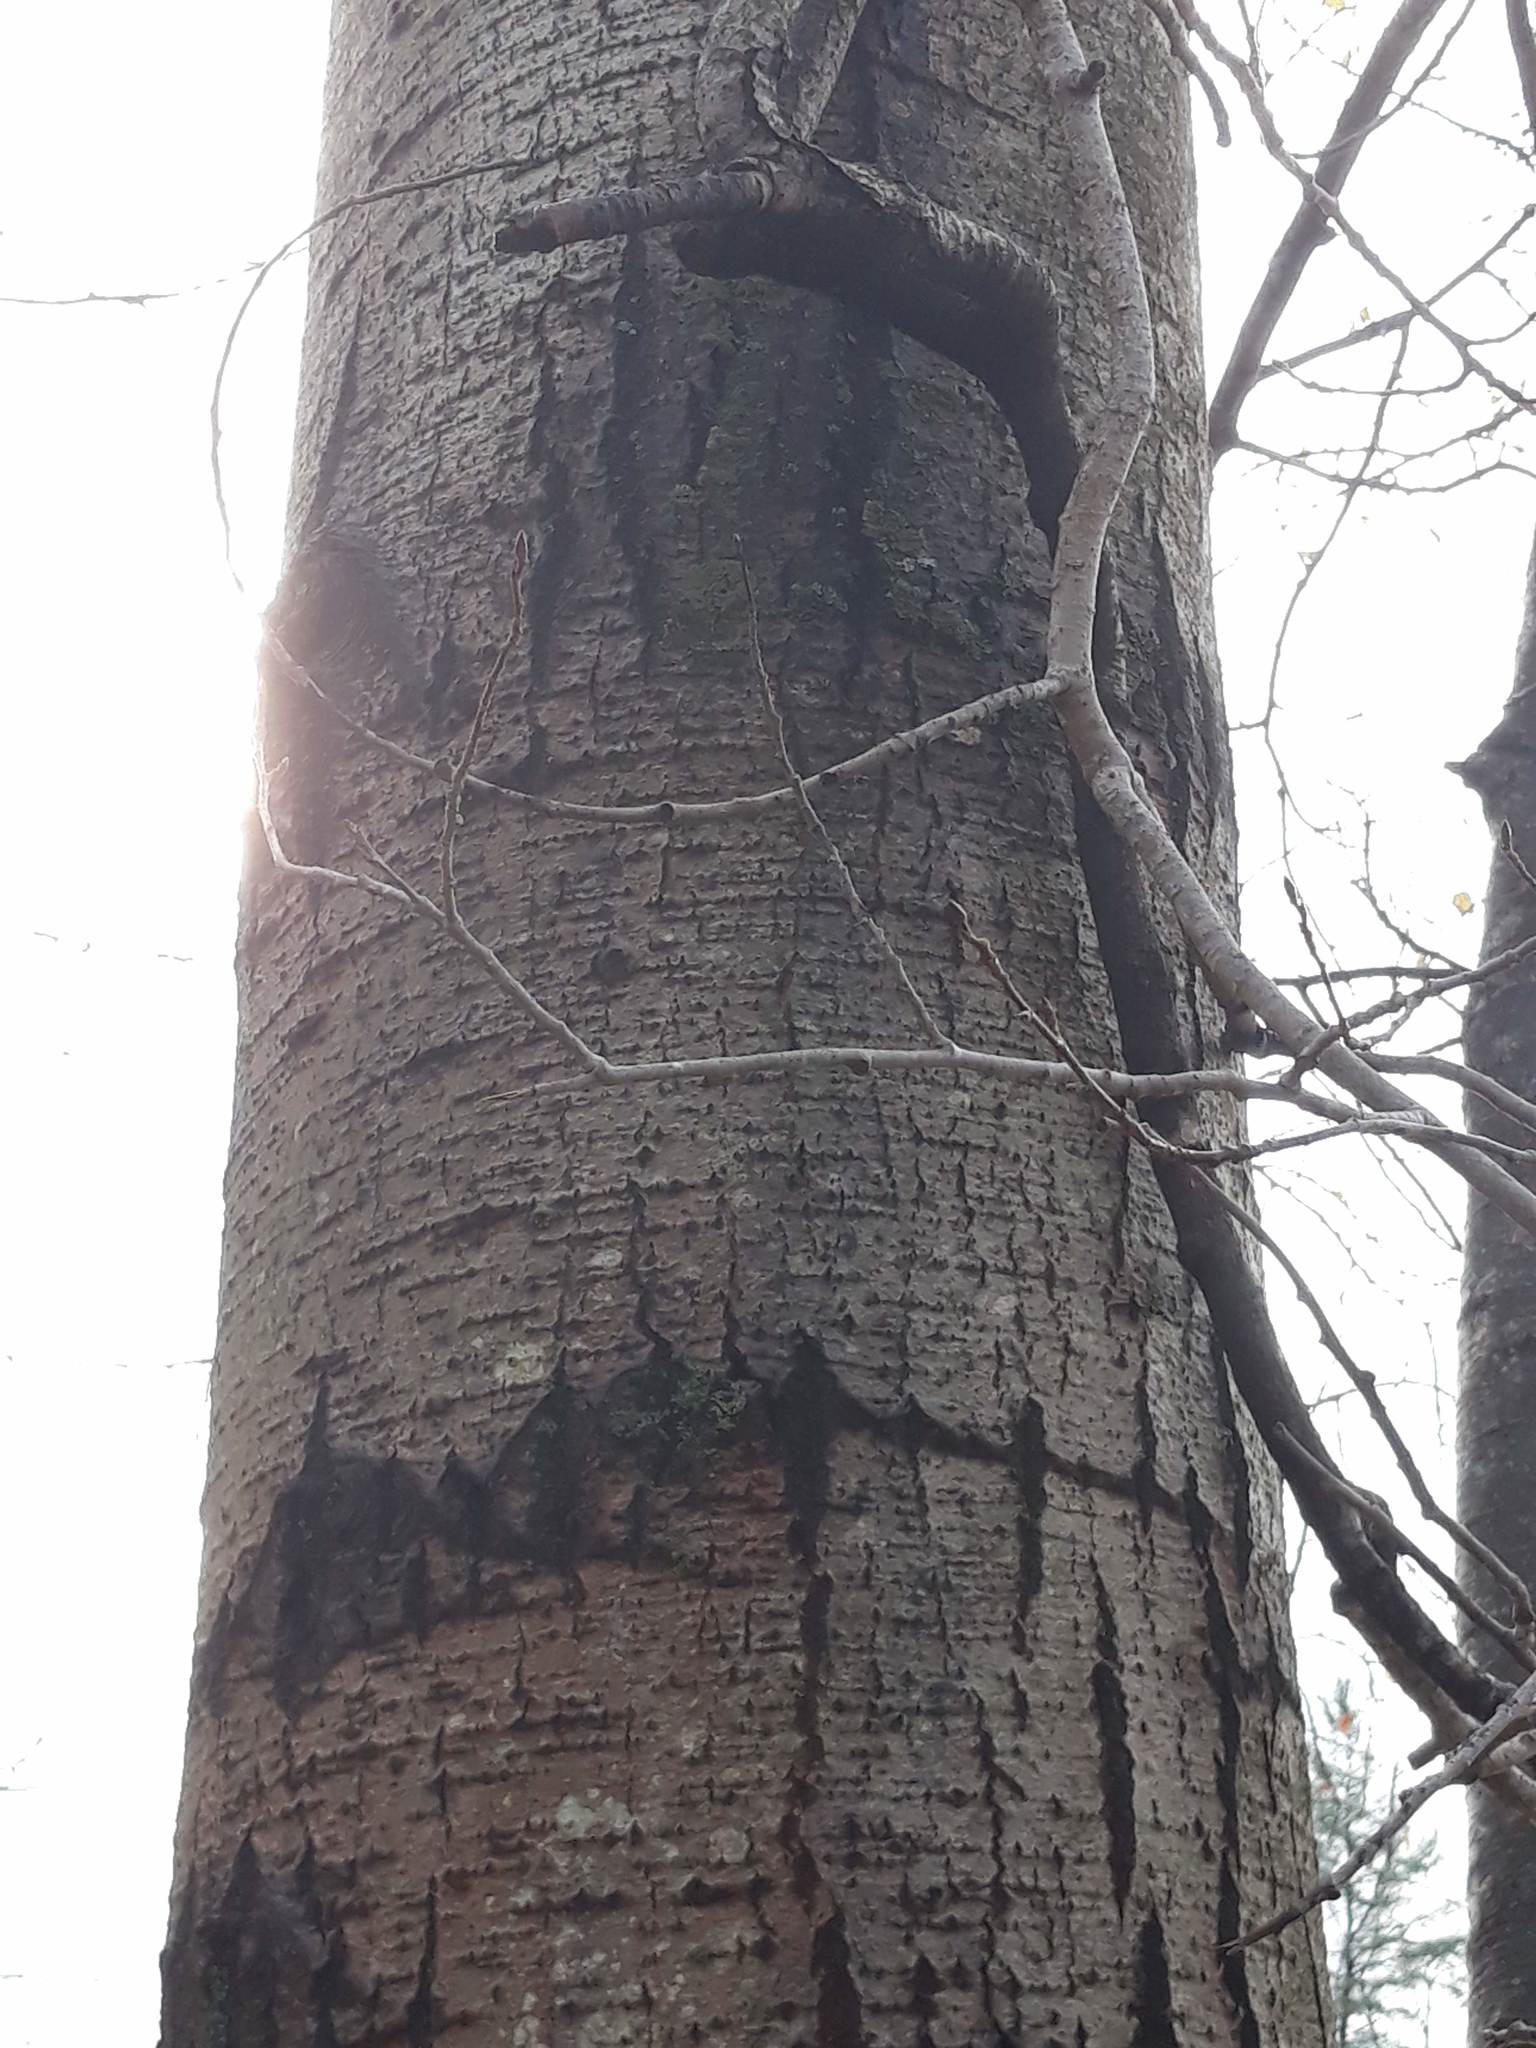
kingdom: Plantae
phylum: Tracheophyta
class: Magnoliopsida
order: Malpighiales
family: Salicaceae
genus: Populus
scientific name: Populus tremuloides
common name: Quaking aspen
